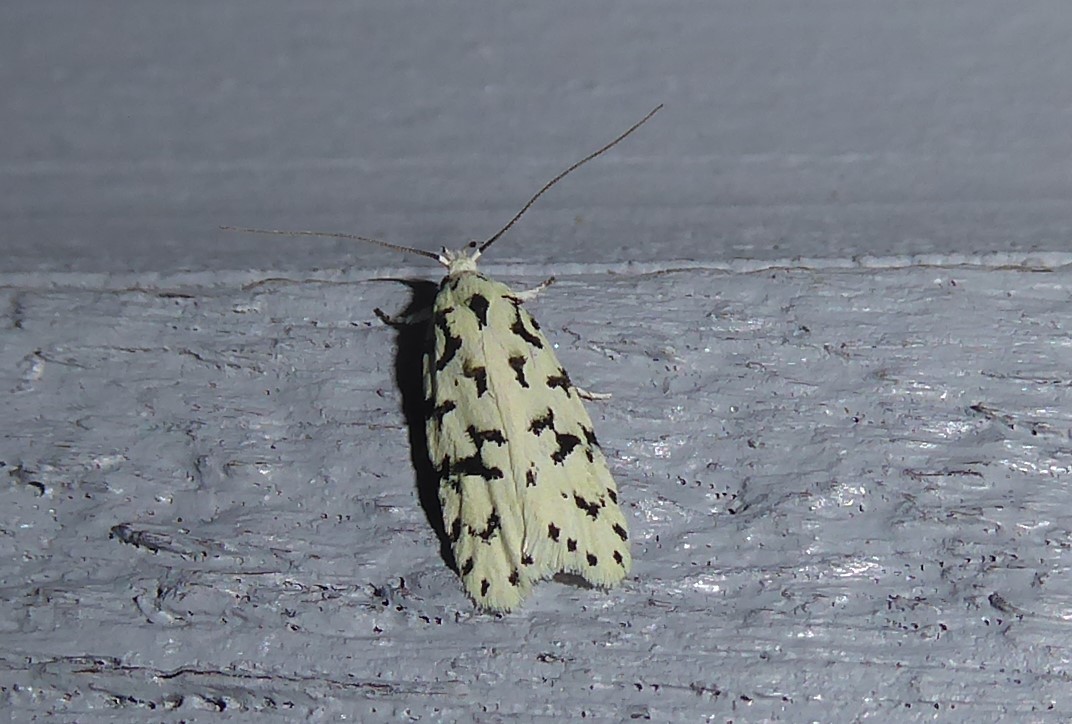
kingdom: Animalia
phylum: Arthropoda
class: Insecta
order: Lepidoptera
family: Oecophoridae
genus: Izatha
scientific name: Izatha huttoni
